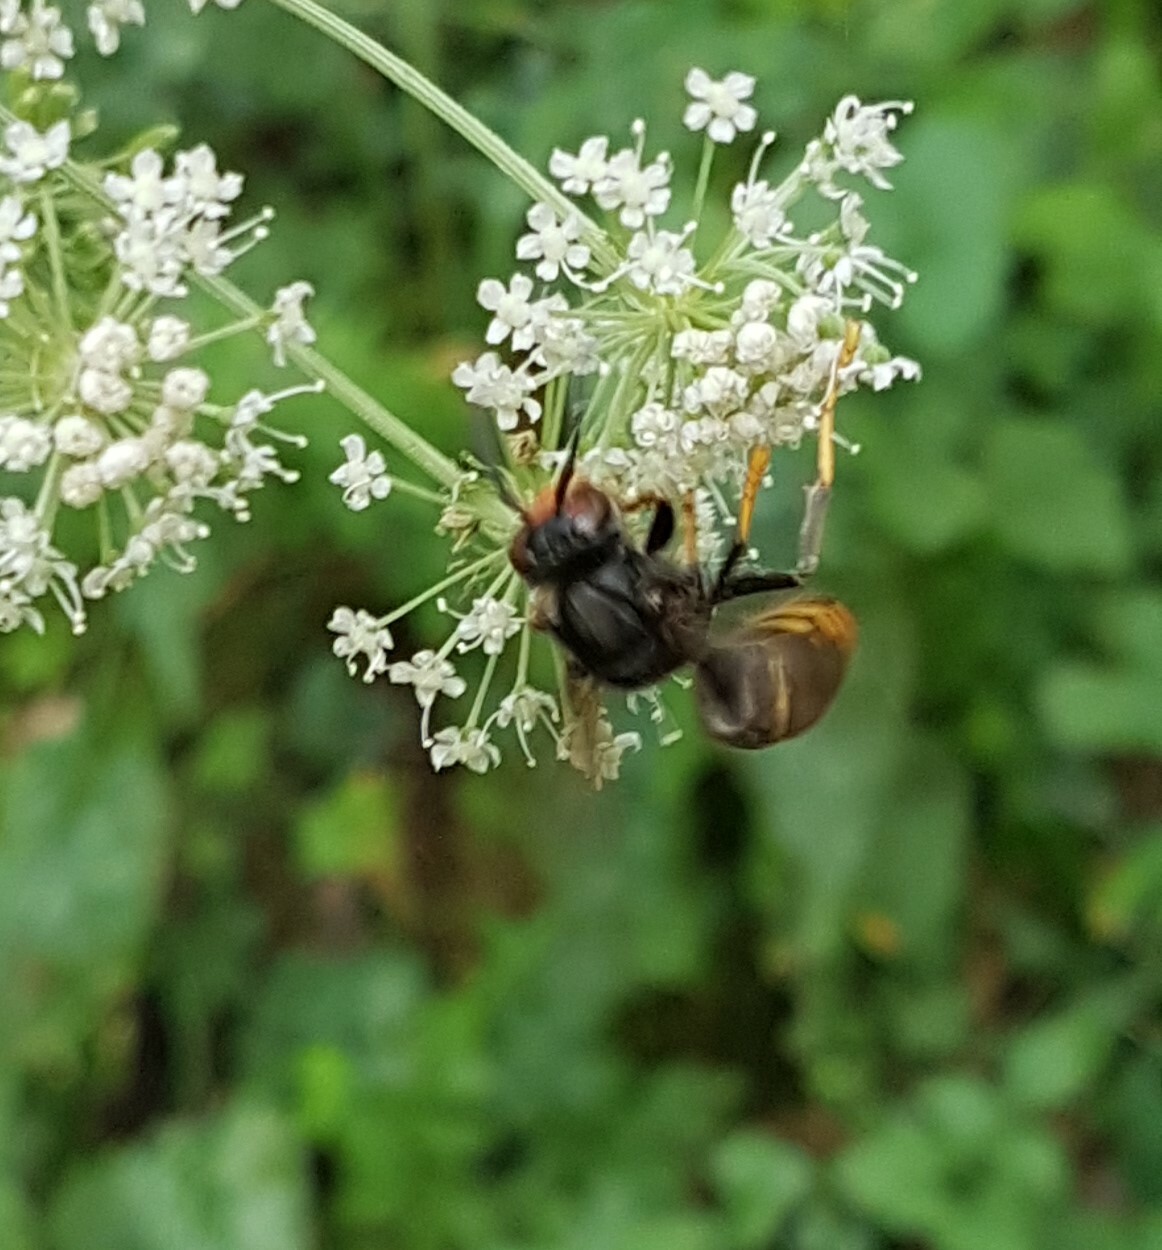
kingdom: Animalia
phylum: Arthropoda
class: Insecta
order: Hymenoptera
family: Vespidae
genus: Vespa
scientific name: Vespa velutina
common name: Asian hornet
